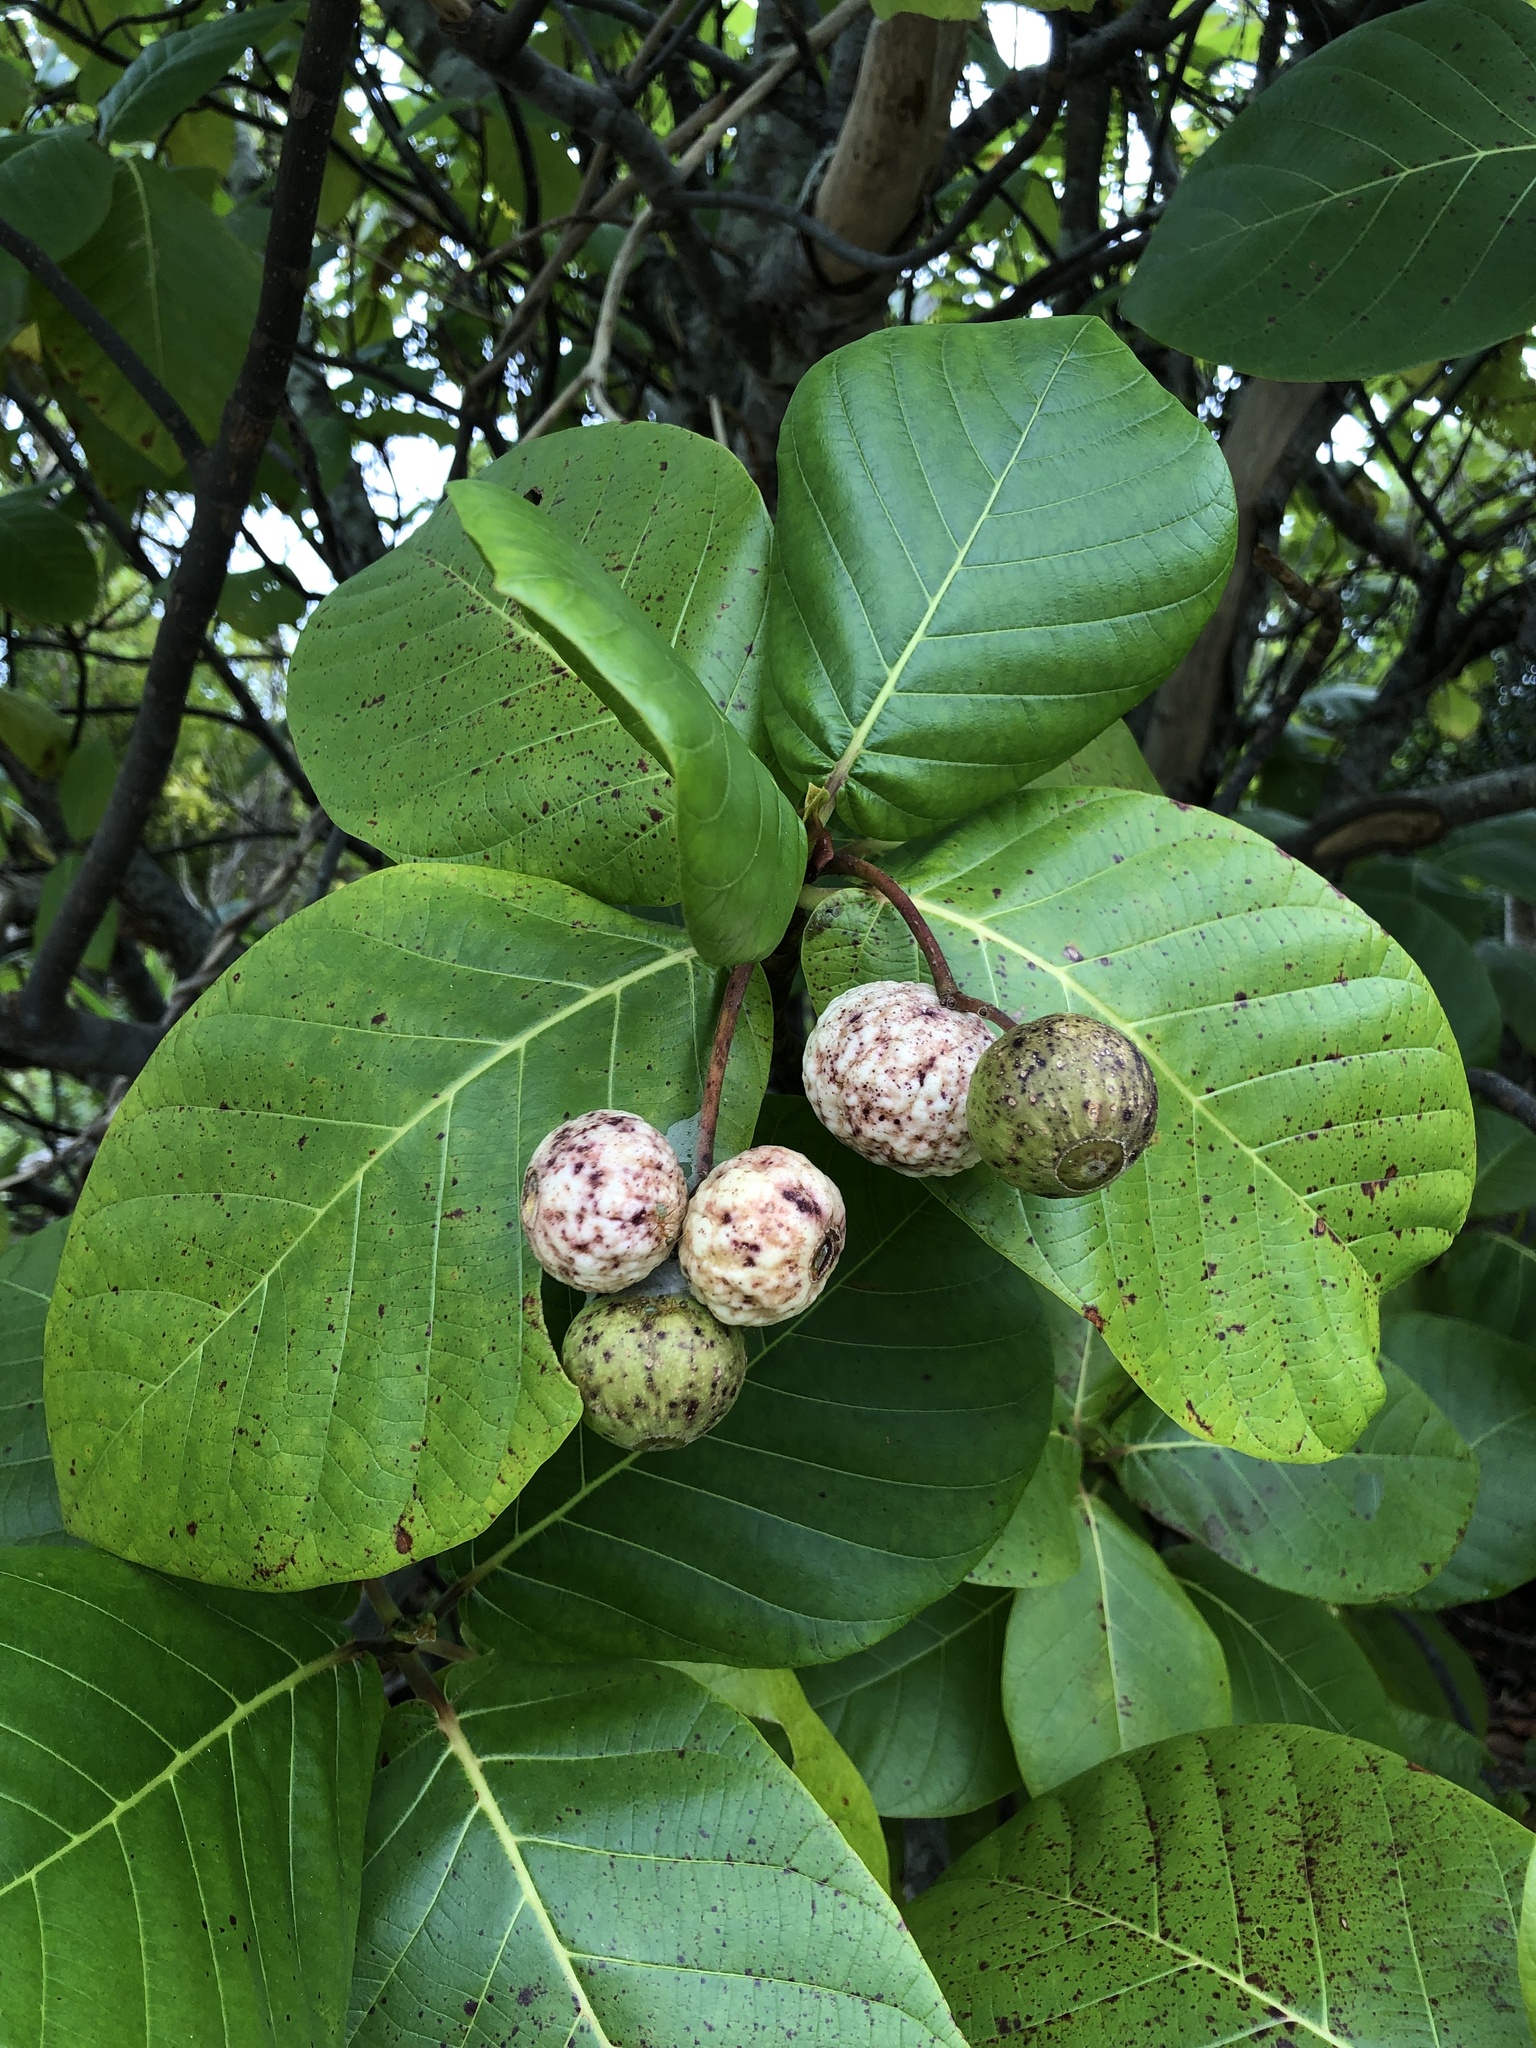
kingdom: Plantae
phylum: Tracheophyta
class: Magnoliopsida
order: Gentianales
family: Rubiaceae
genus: Guettarda
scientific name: Guettarda speciosa
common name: Sea randa
